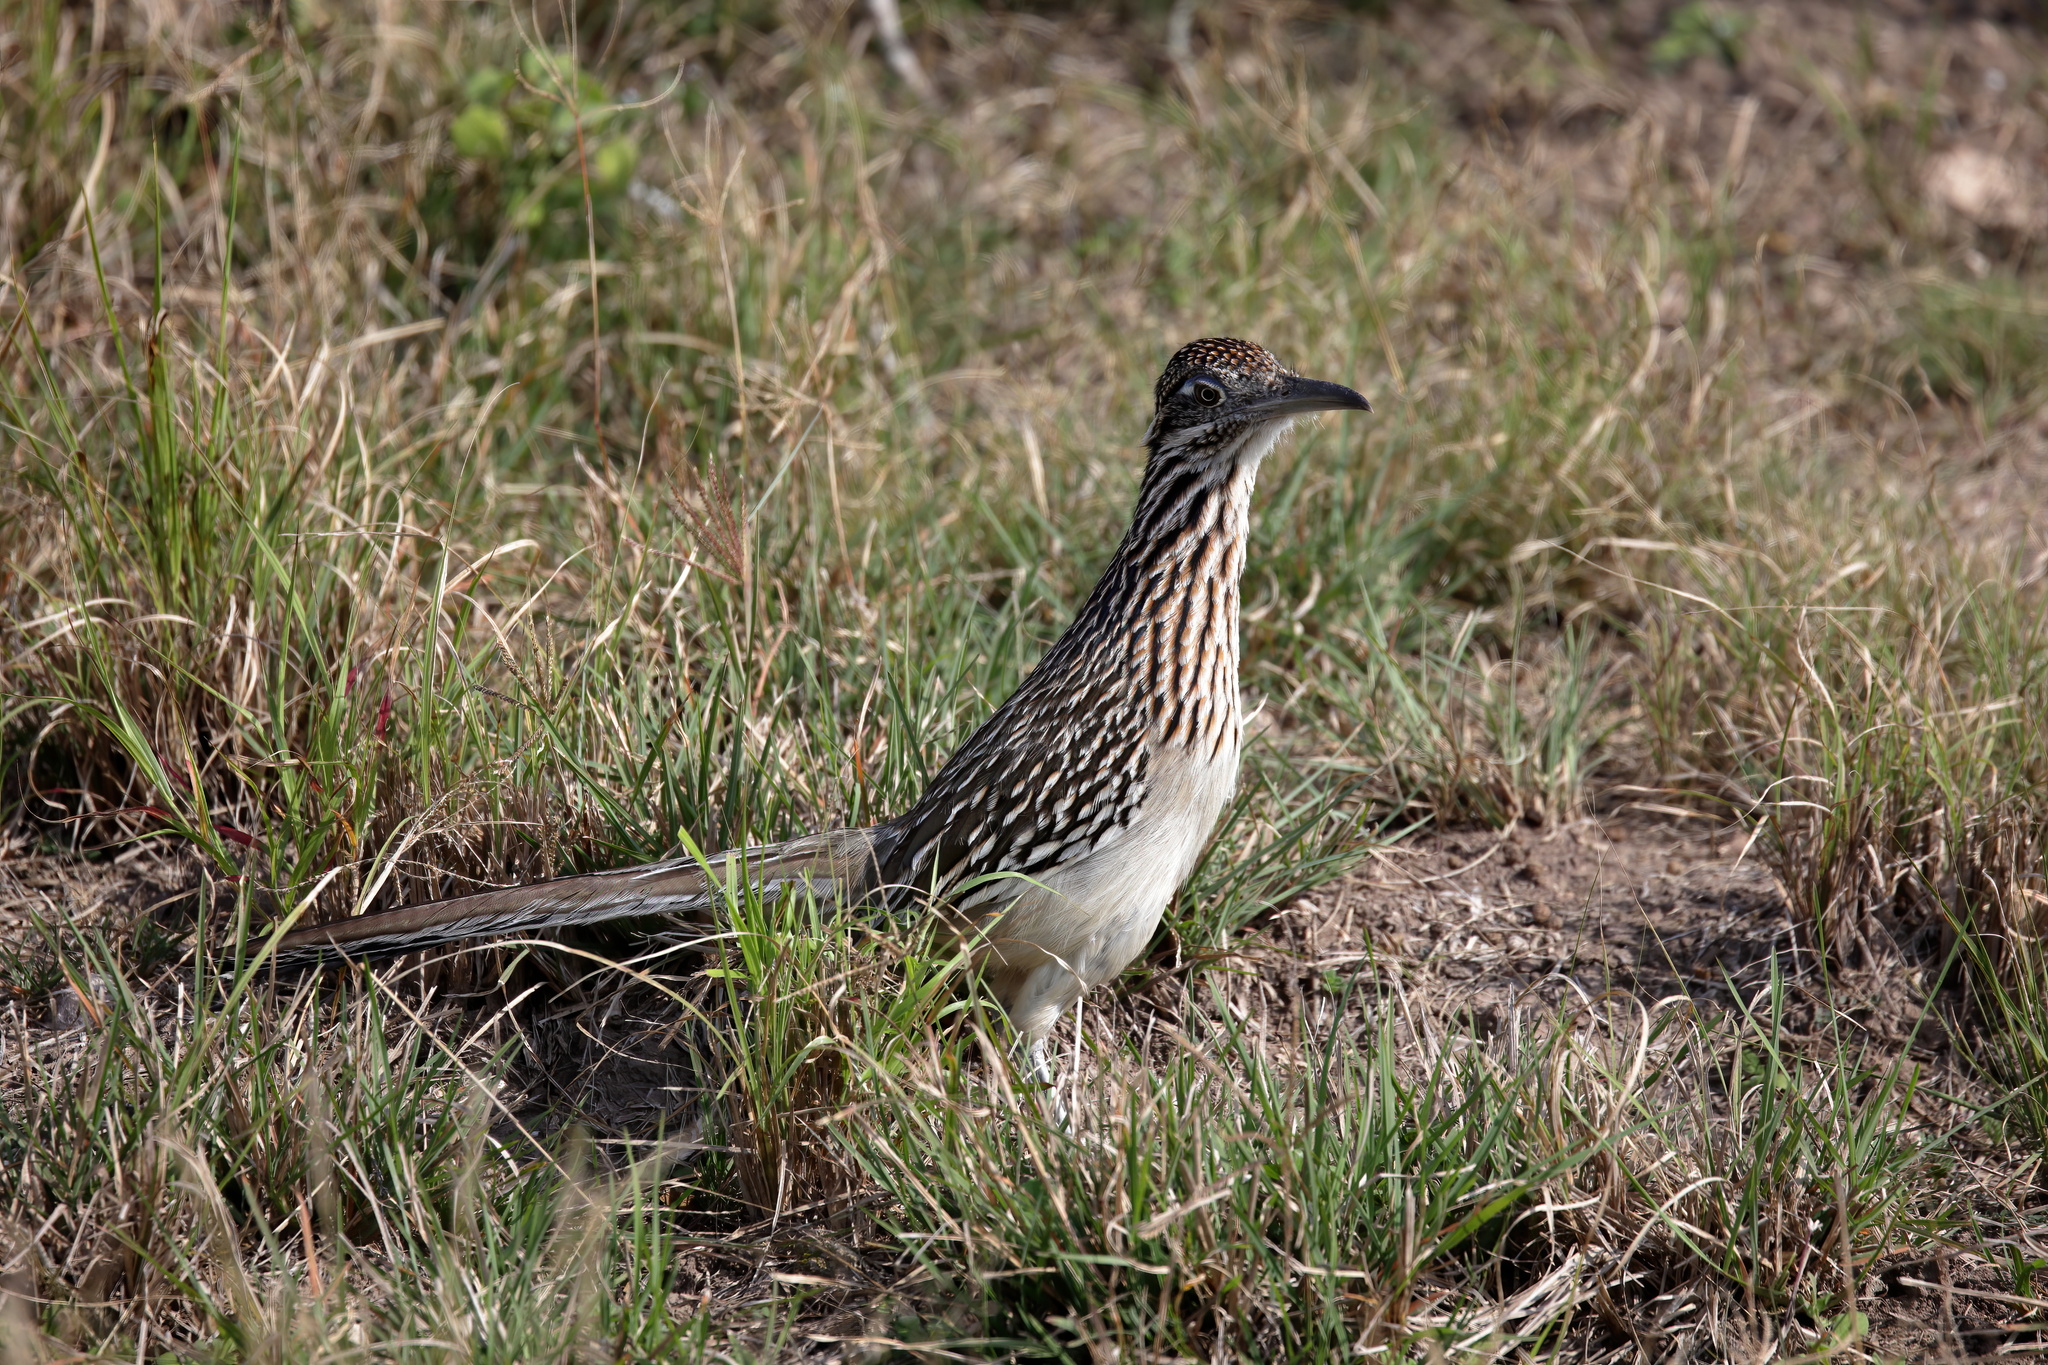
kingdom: Animalia
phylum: Chordata
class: Aves
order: Cuculiformes
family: Cuculidae
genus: Geococcyx
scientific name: Geococcyx californianus
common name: Greater roadrunner
